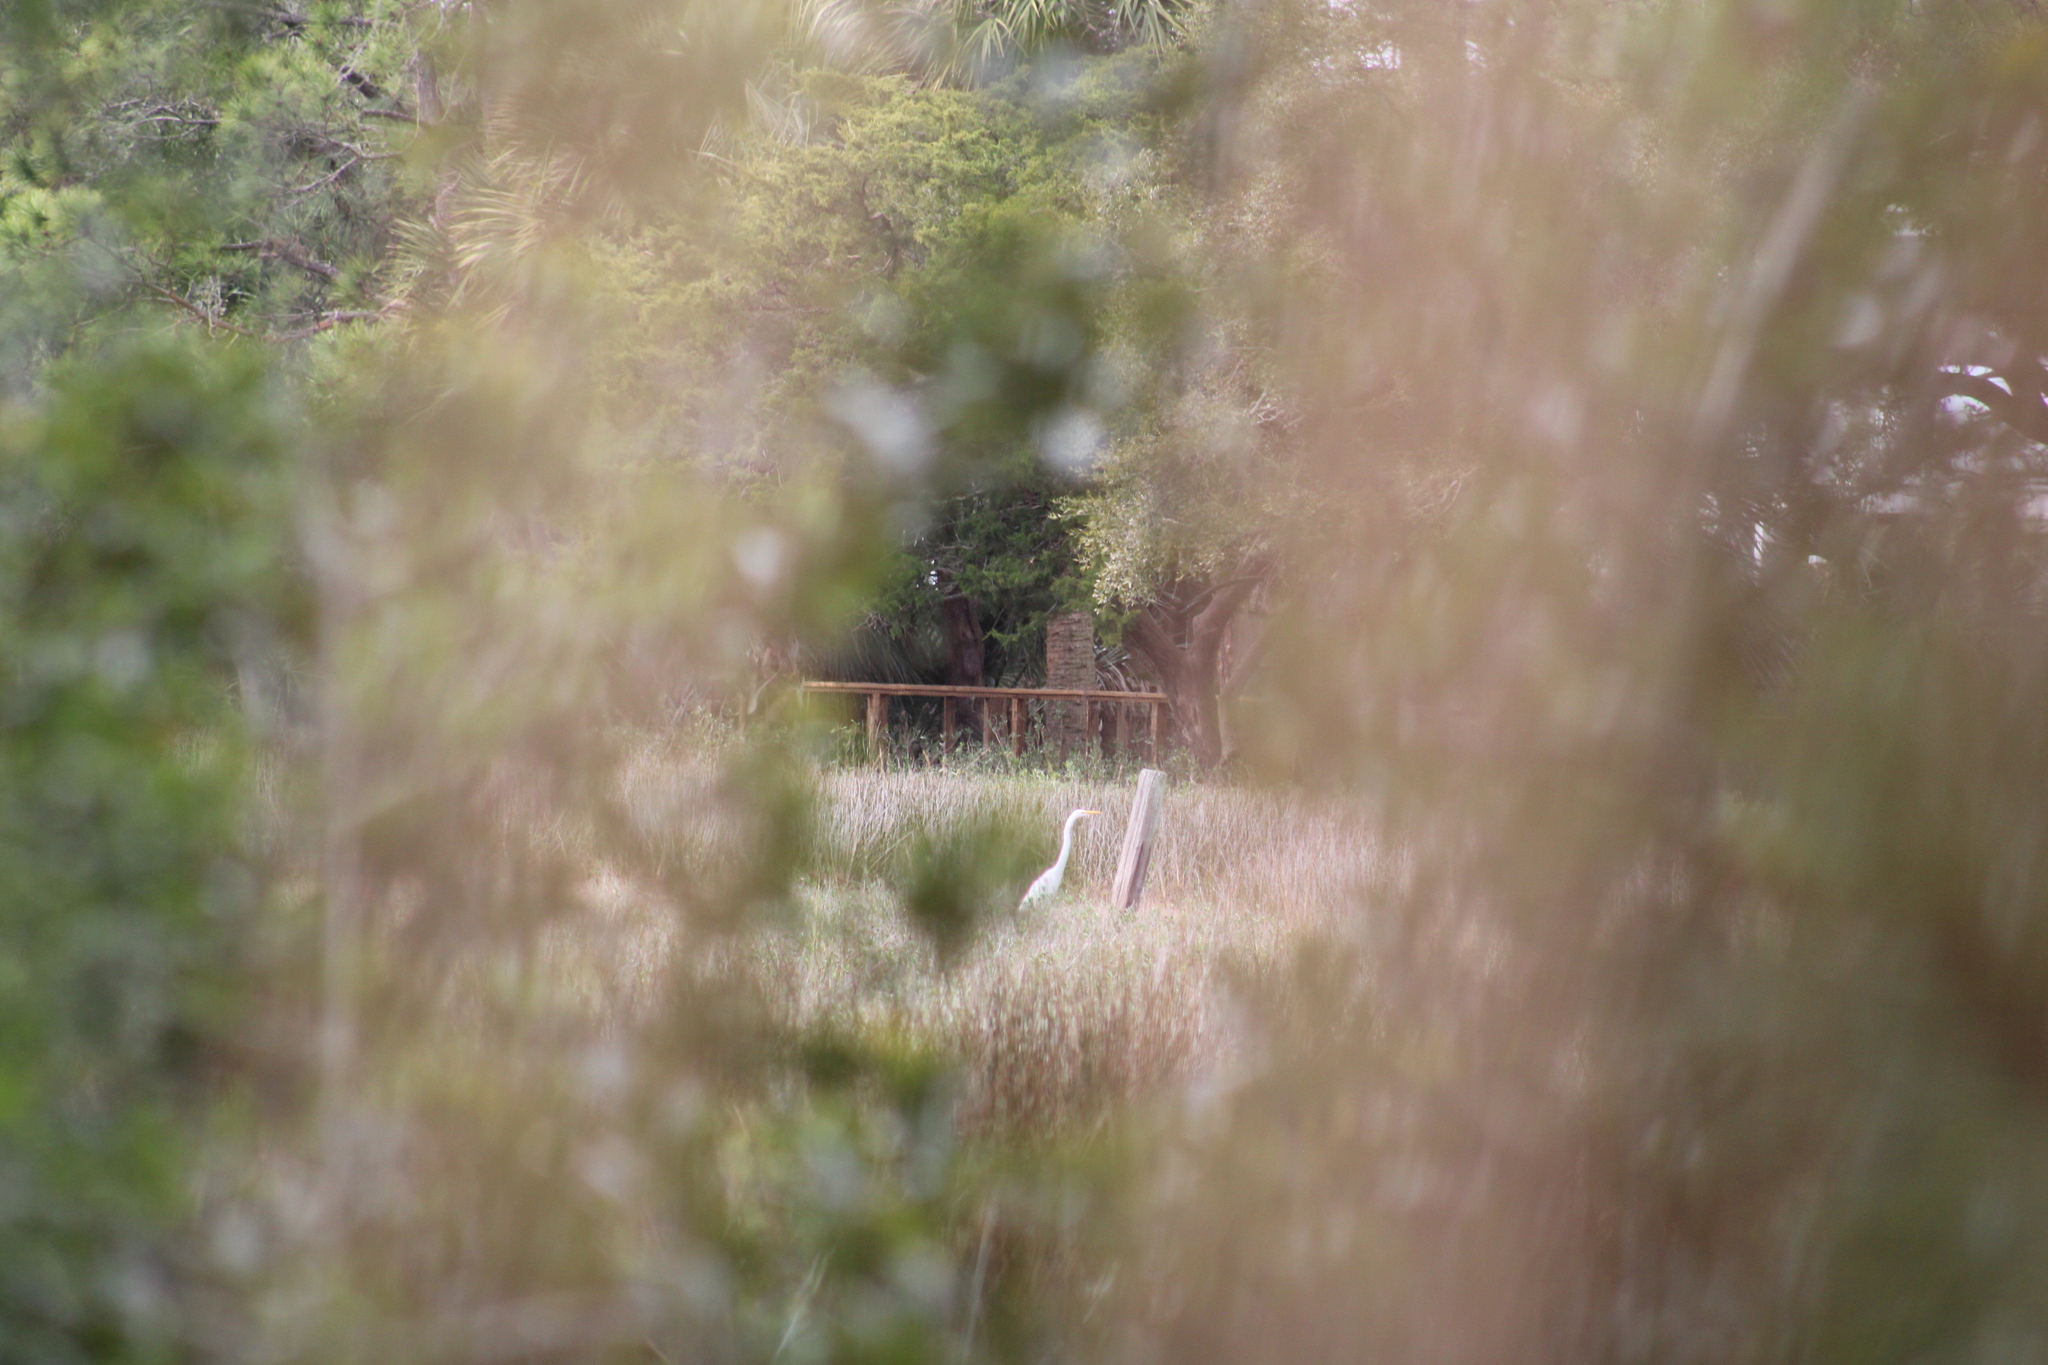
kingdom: Animalia
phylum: Chordata
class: Aves
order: Pelecaniformes
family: Ardeidae
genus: Ardea
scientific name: Ardea alba
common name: Great egret
